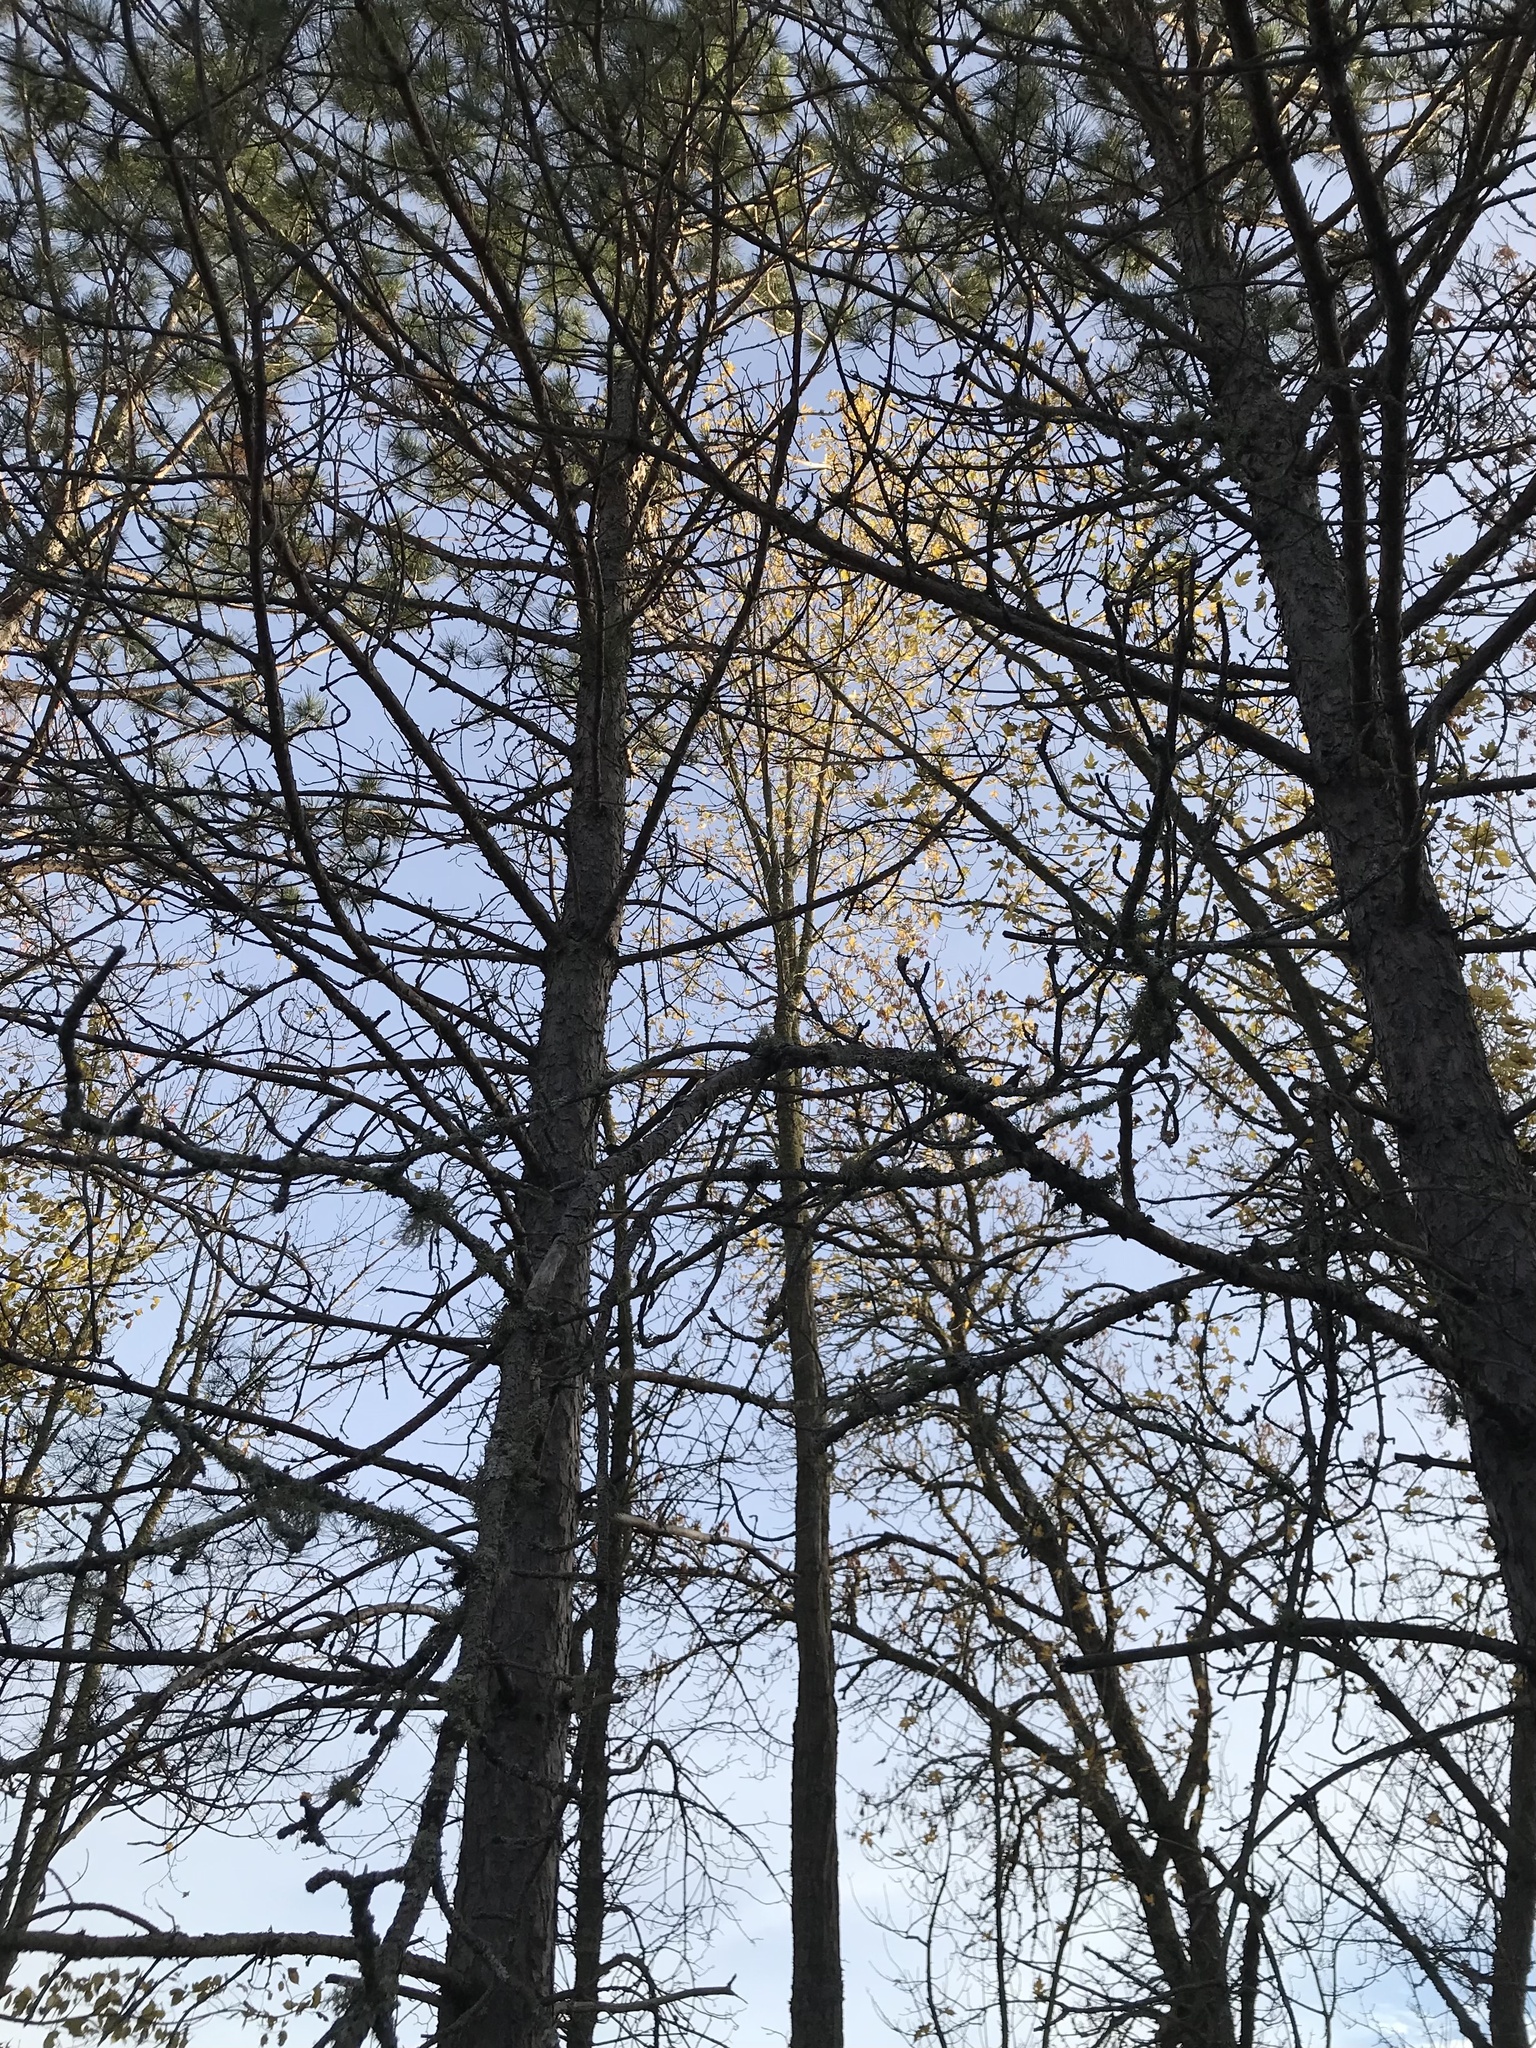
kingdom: Plantae
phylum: Tracheophyta
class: Magnoliopsida
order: Sapindales
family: Sapindaceae
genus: Acer
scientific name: Acer saccharinum
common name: Silver maple
